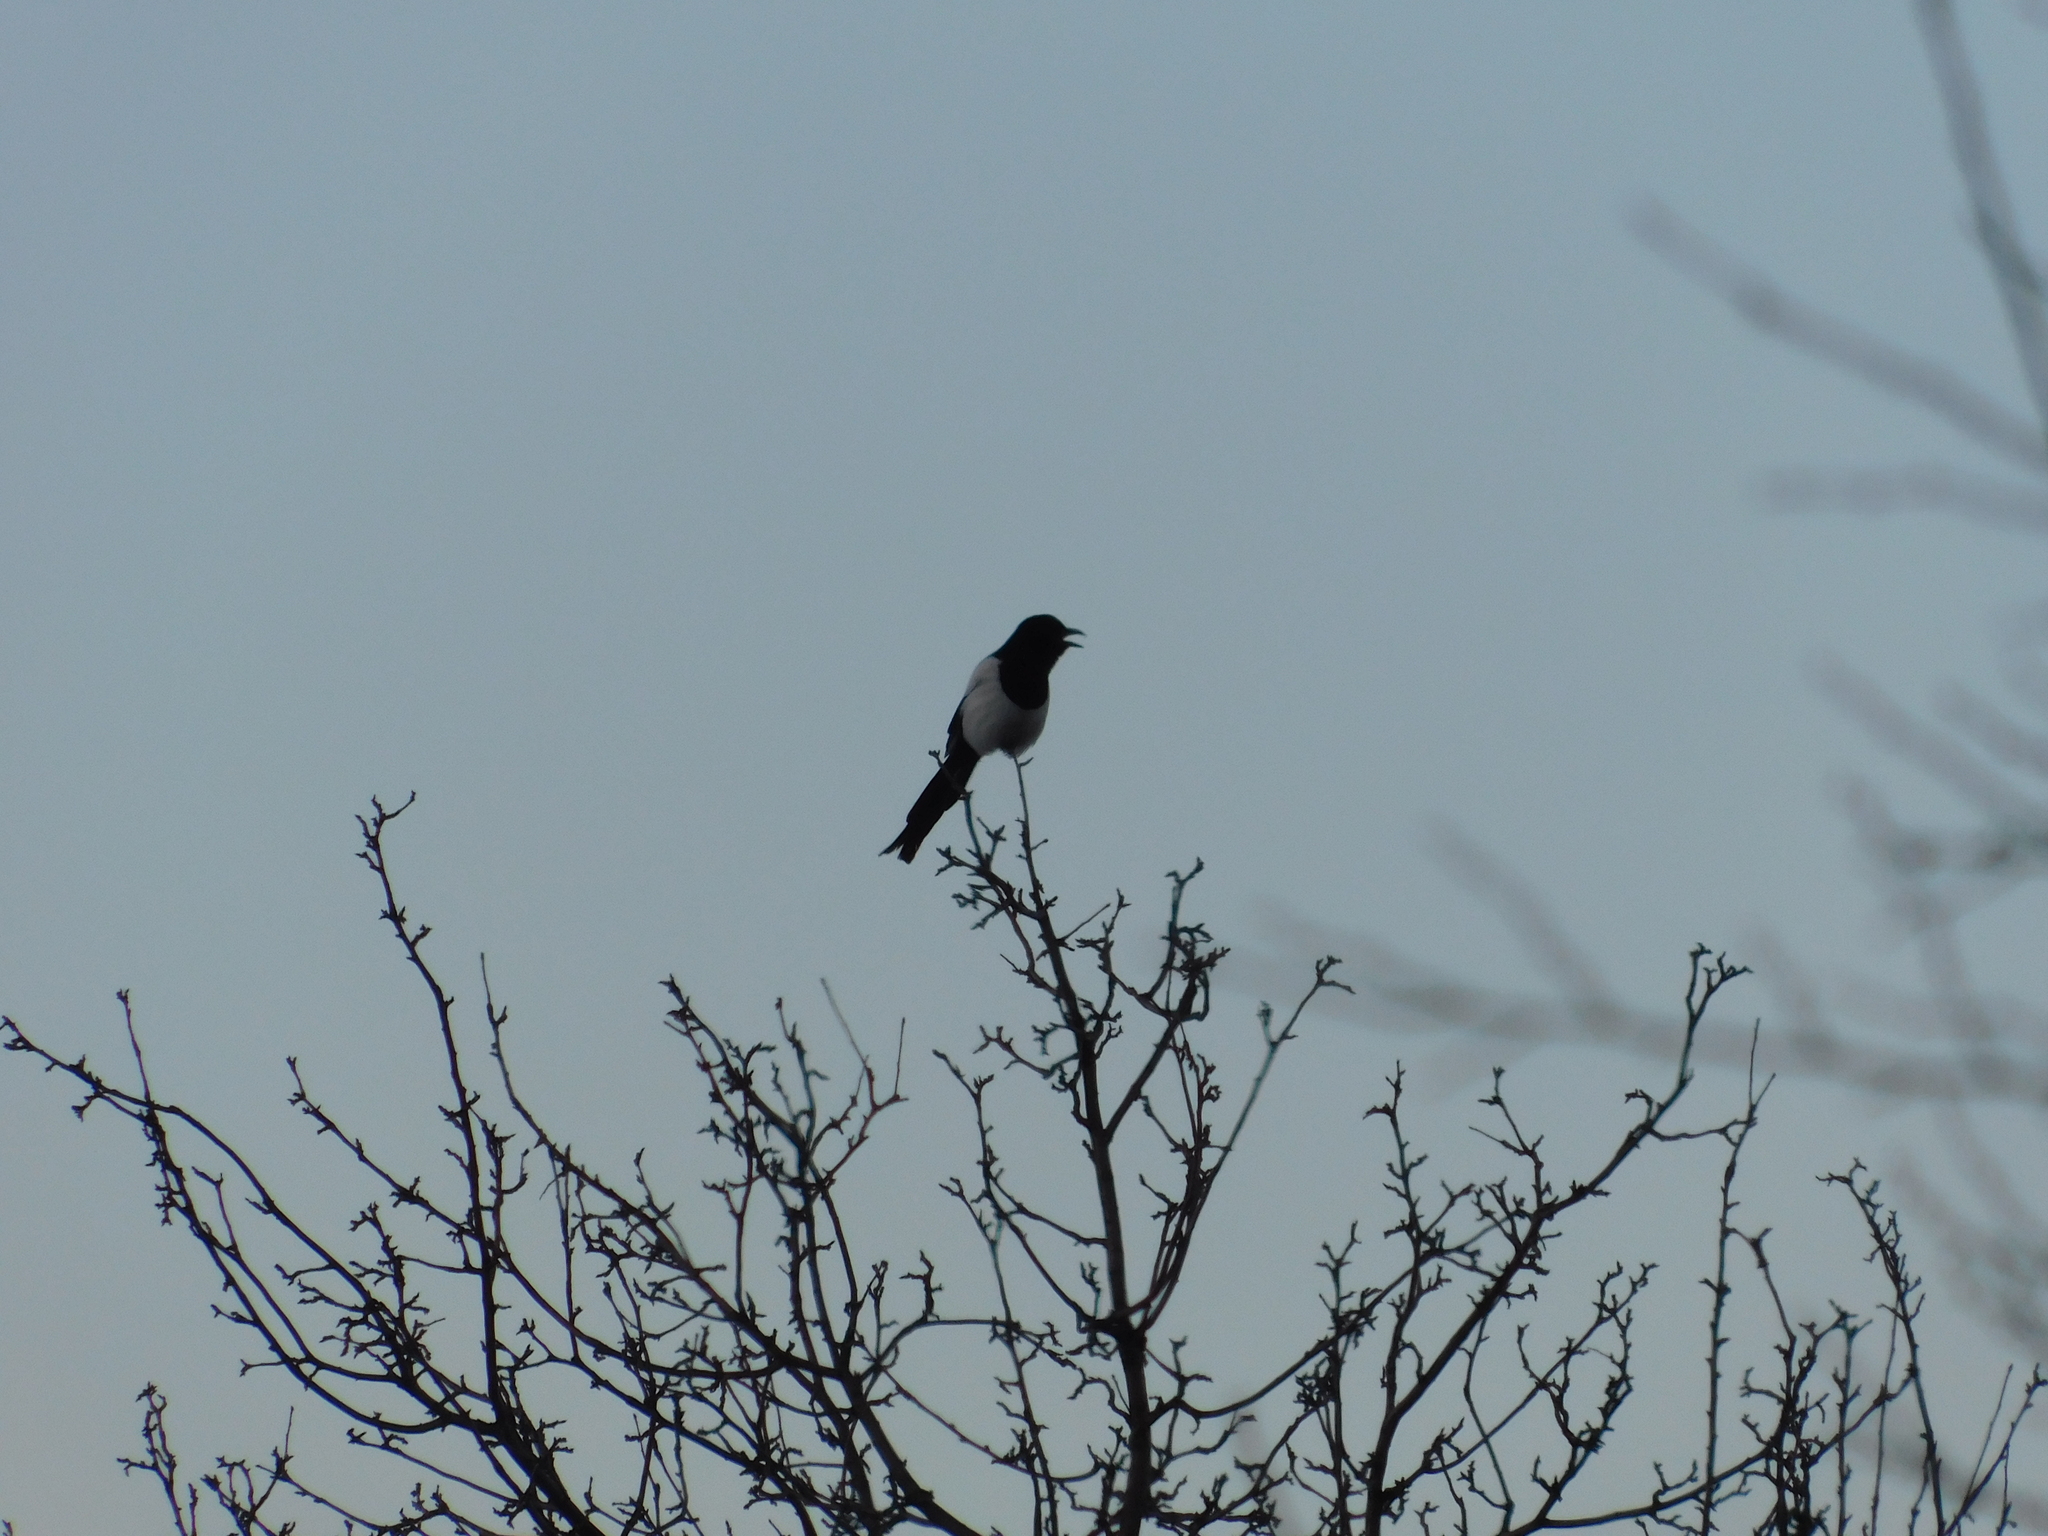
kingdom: Animalia
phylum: Chordata
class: Aves
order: Passeriformes
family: Corvidae
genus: Pica
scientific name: Pica pica
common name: Eurasian magpie
